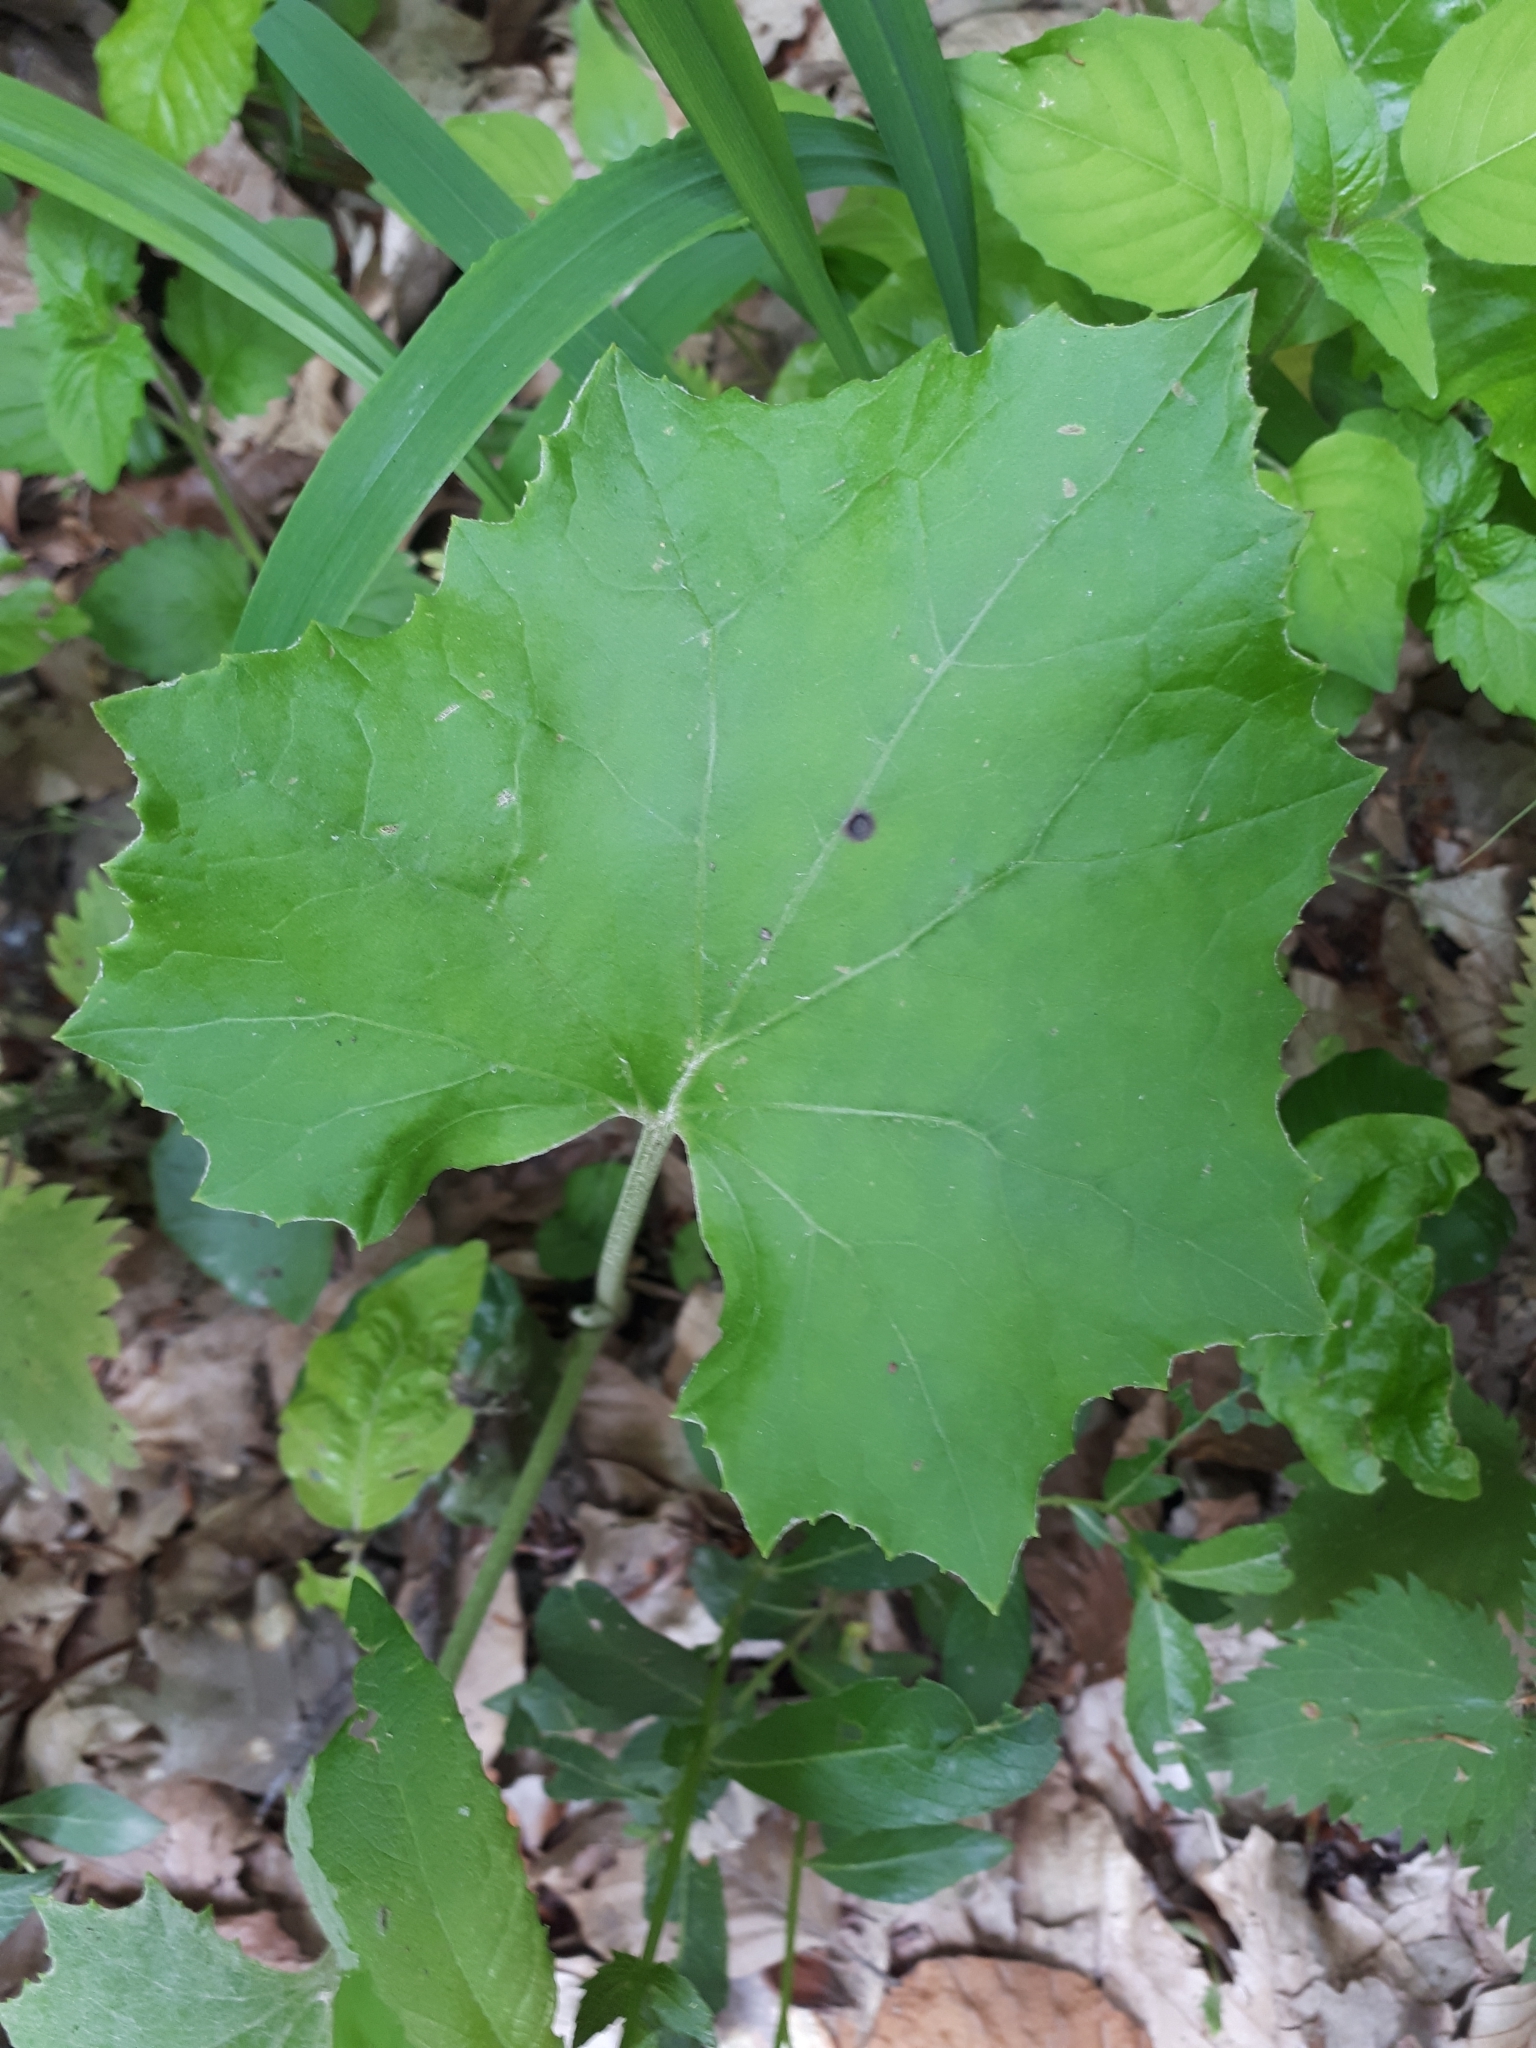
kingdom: Plantae
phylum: Tracheophyta
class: Magnoliopsida
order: Asterales
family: Asteraceae
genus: Tussilago
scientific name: Tussilago farfara
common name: Coltsfoot
